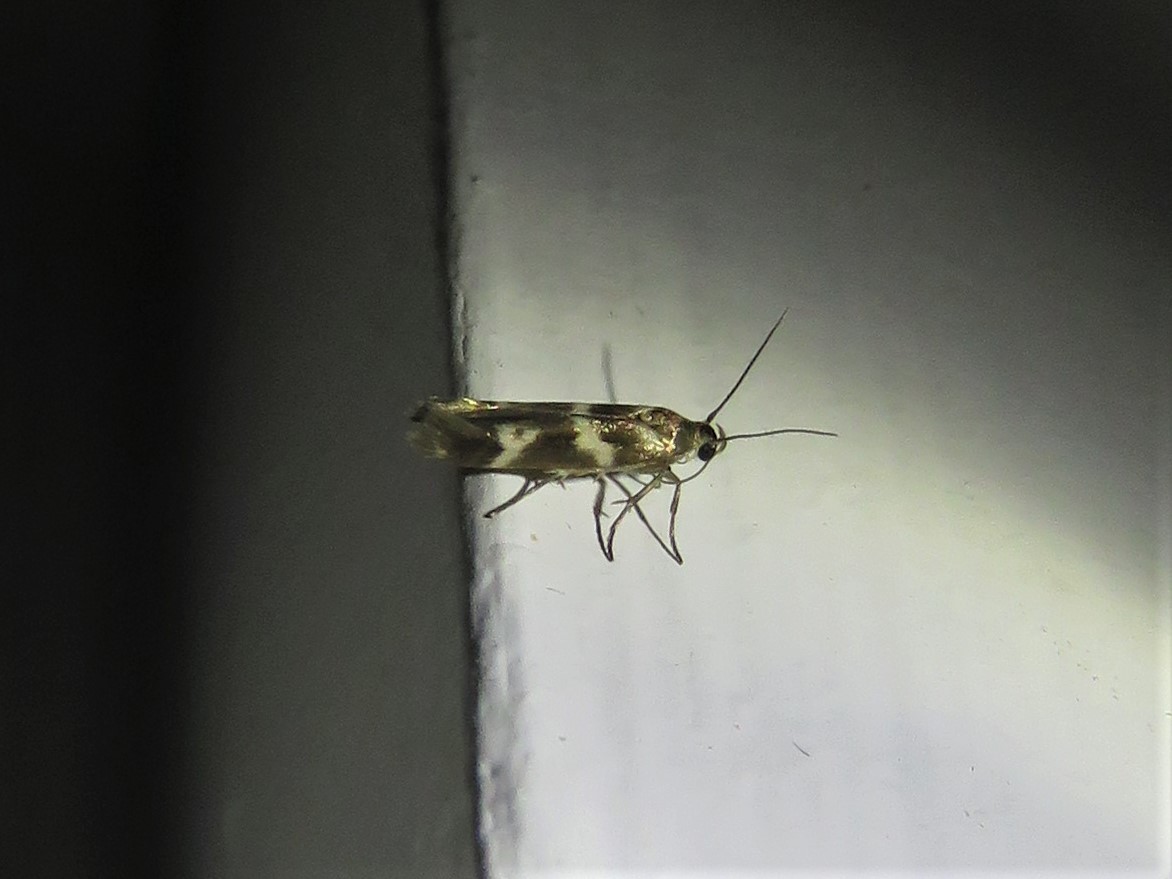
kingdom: Animalia
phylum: Arthropoda
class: Insecta
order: Lepidoptera
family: Scythrididae
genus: Scythris
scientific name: Scythris trivinctella
